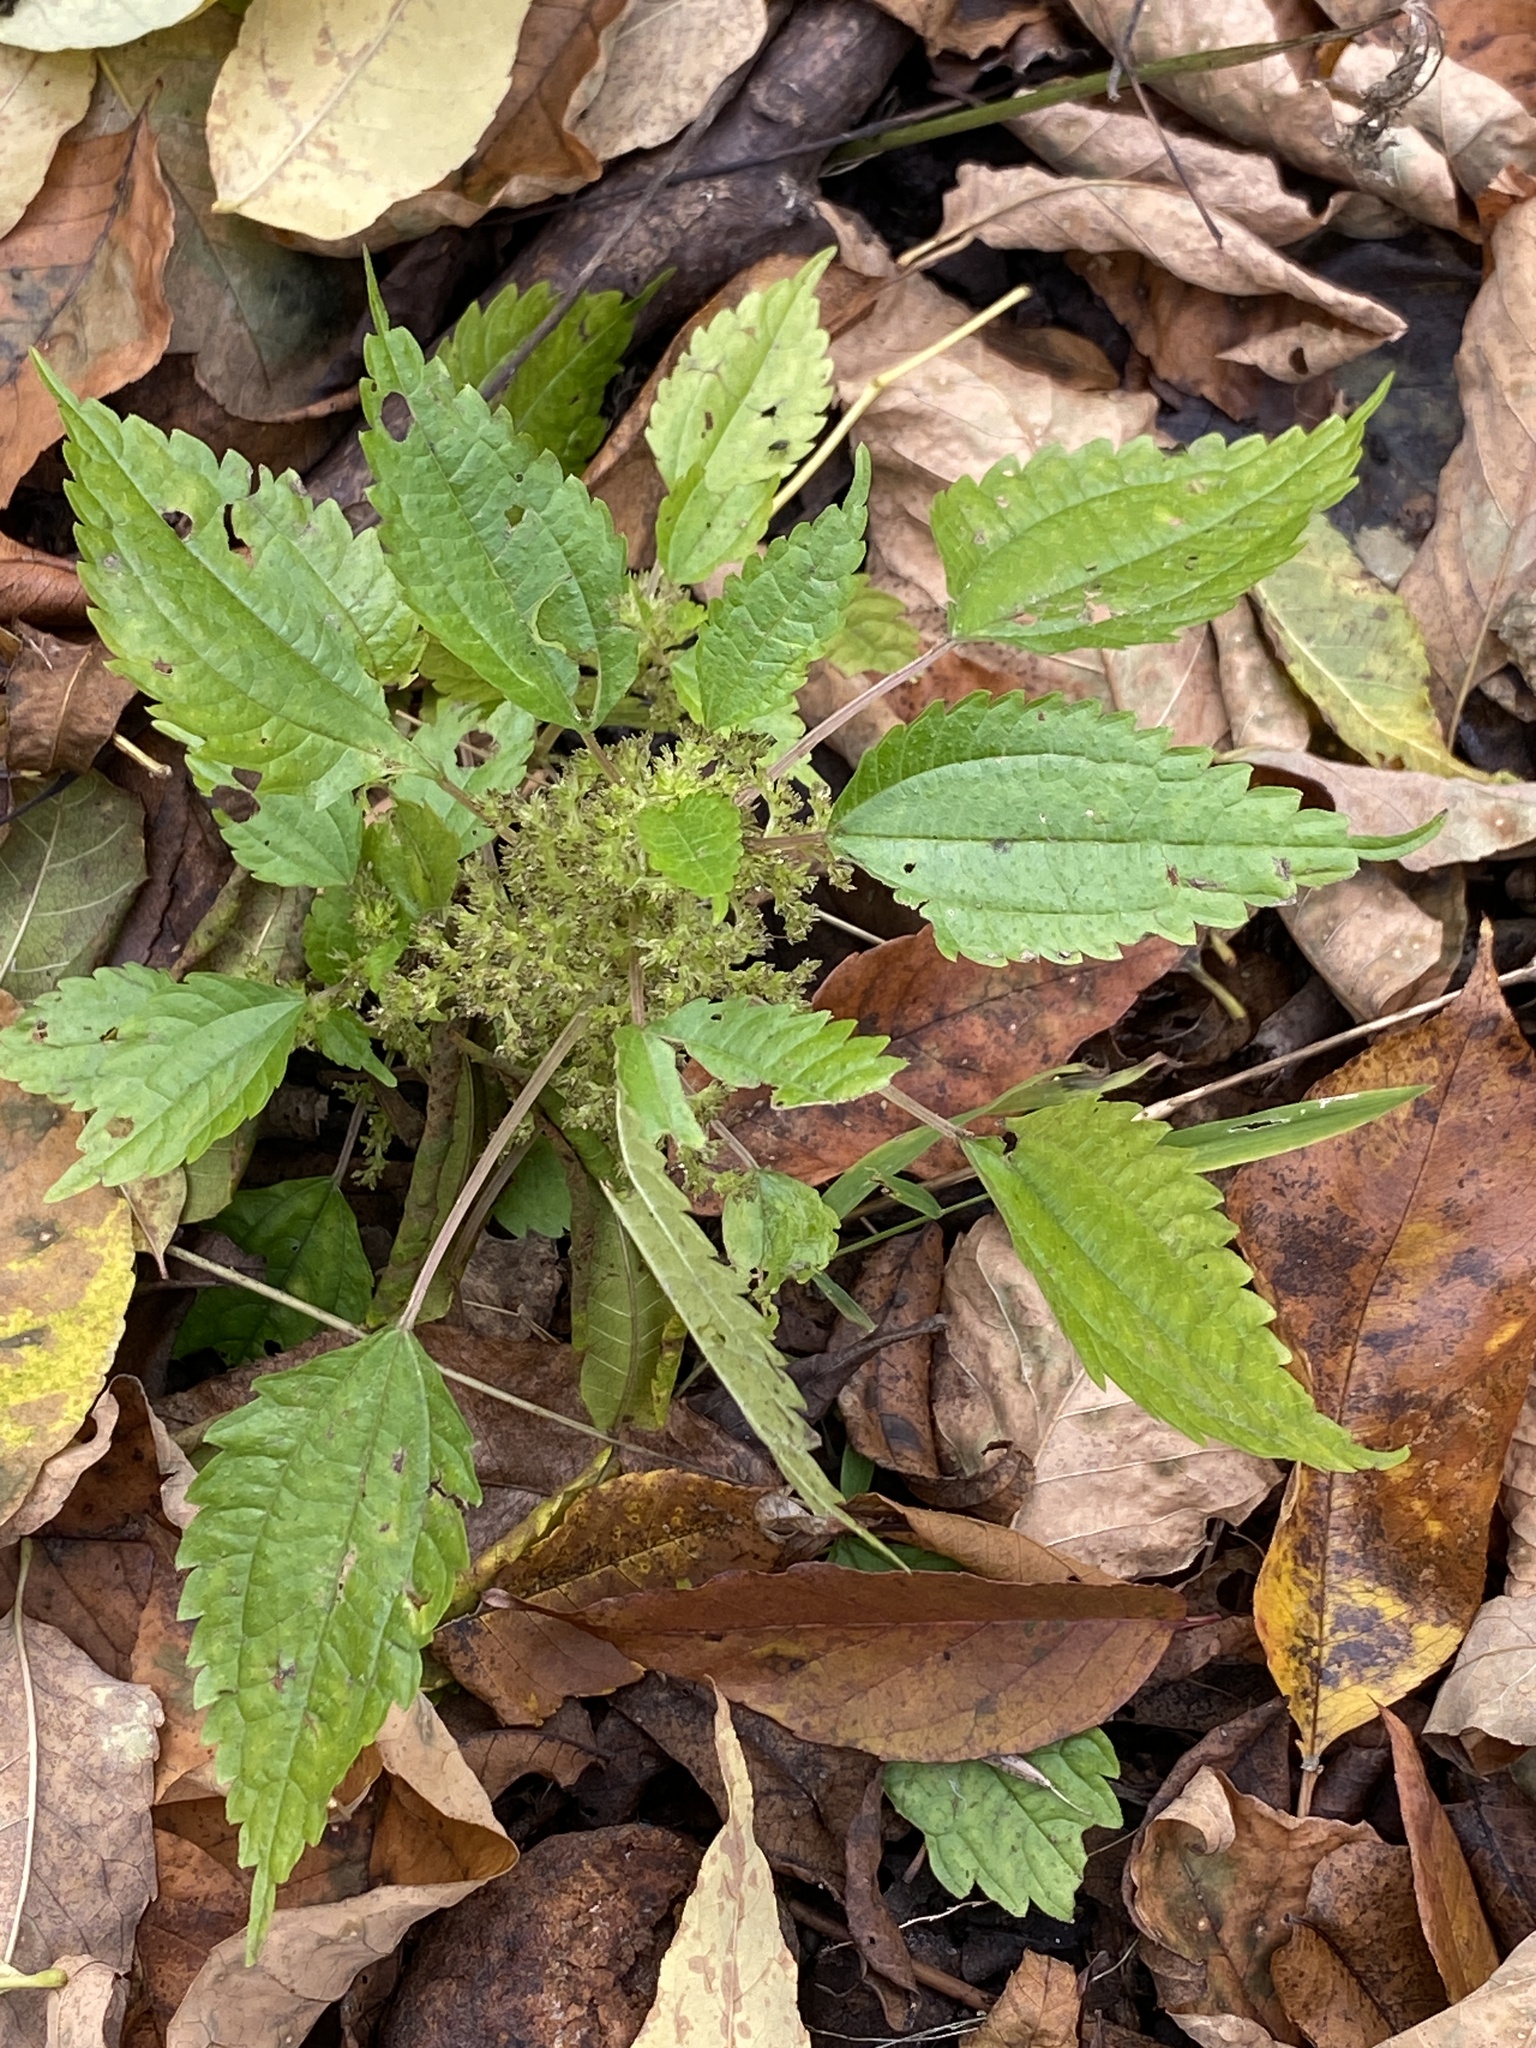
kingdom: Plantae
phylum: Tracheophyta
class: Magnoliopsida
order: Rosales
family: Urticaceae
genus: Pilea
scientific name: Pilea pumila
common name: Clearweed
